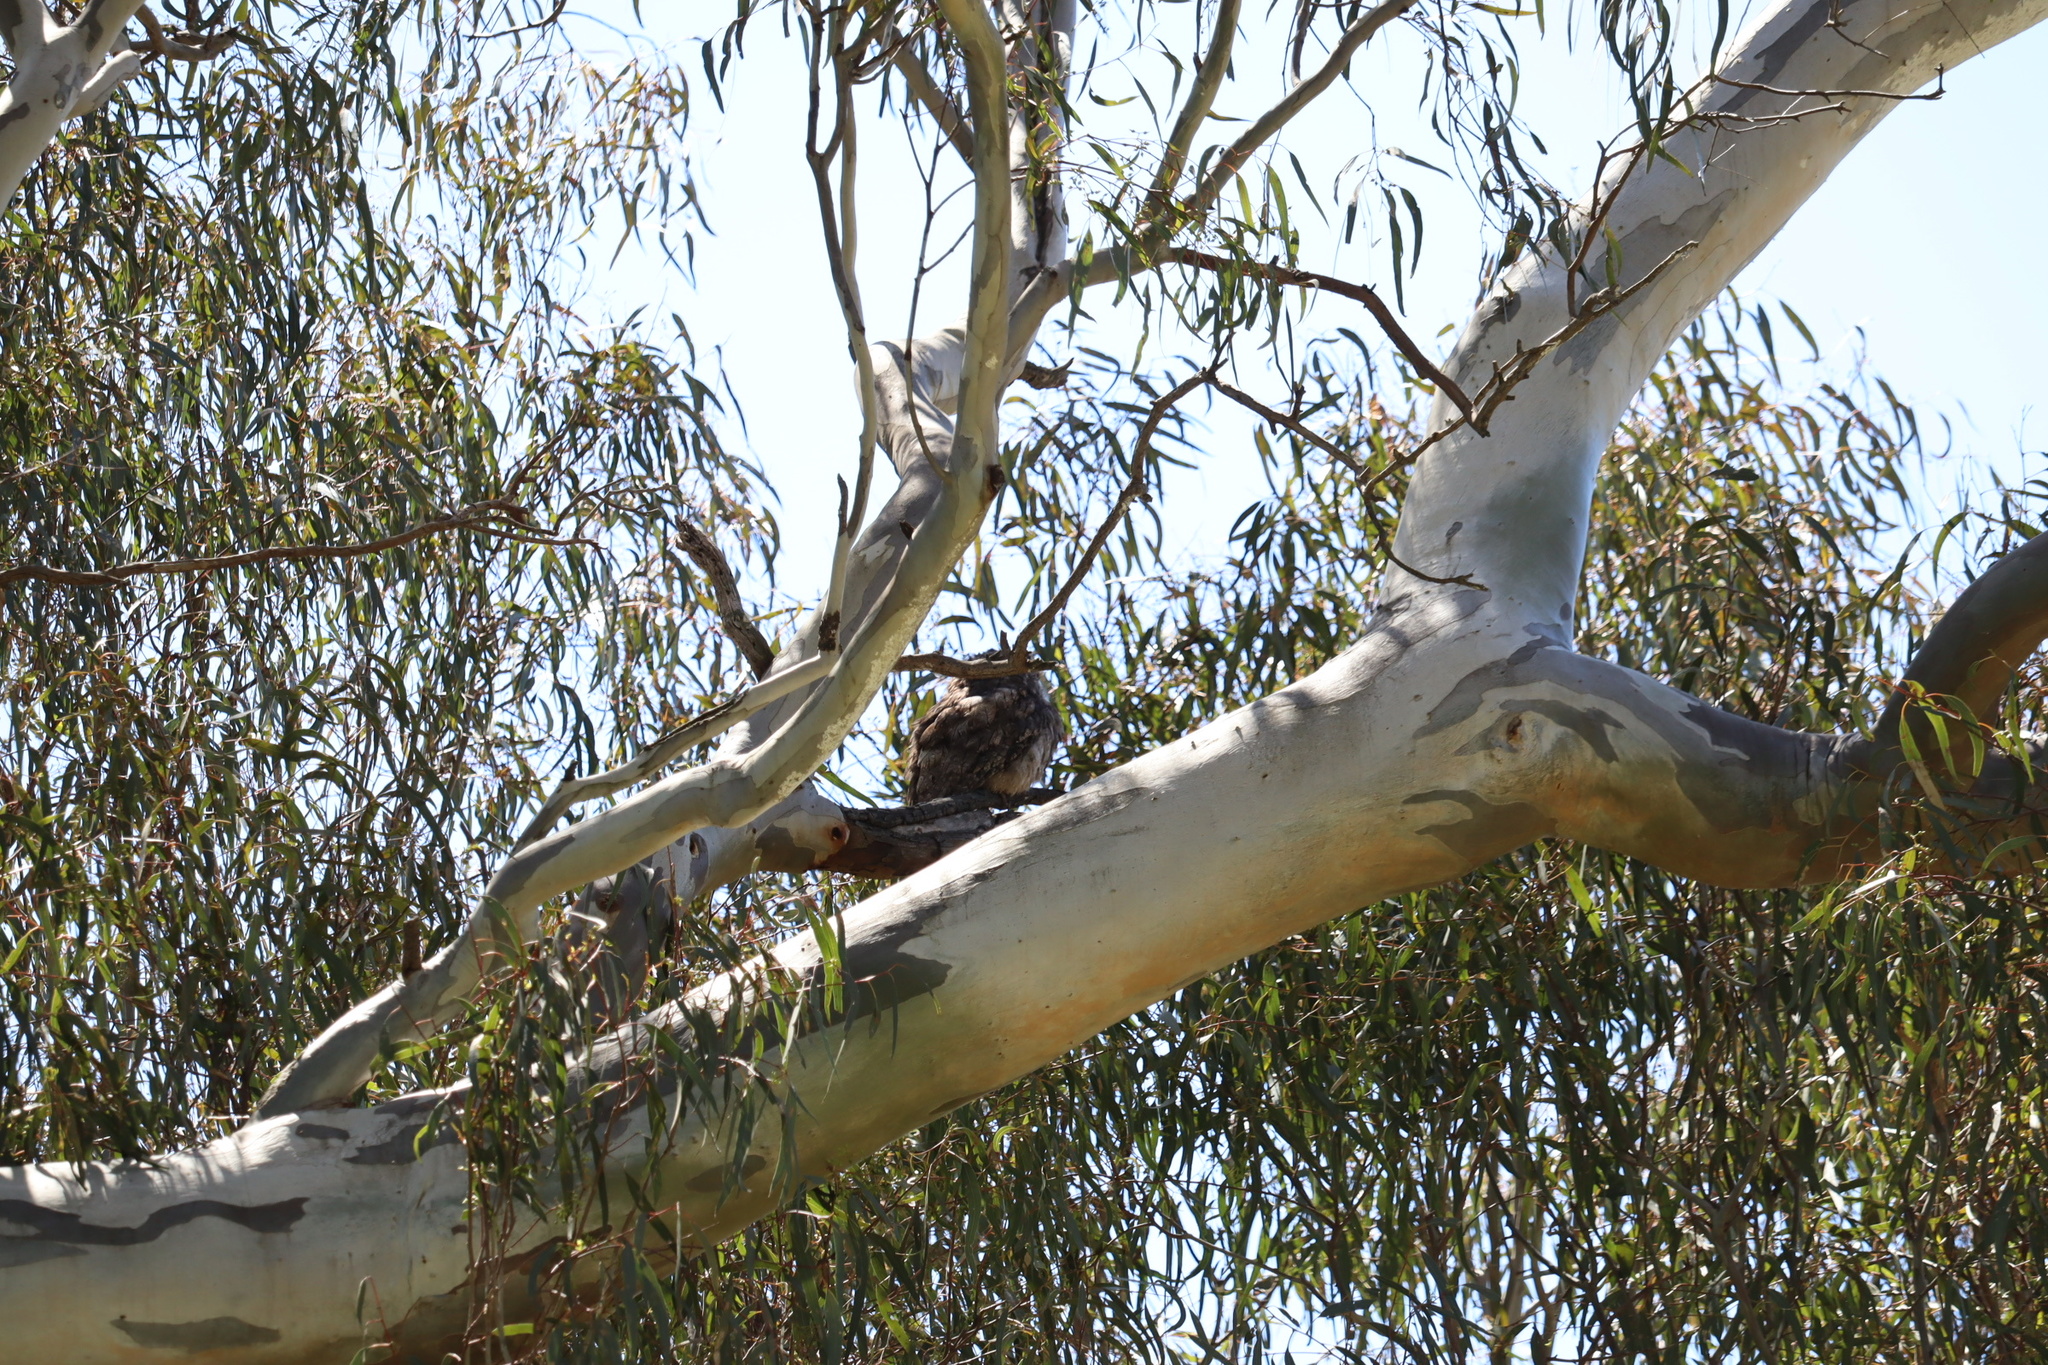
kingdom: Animalia
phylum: Chordata
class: Aves
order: Caprimulgiformes
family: Podargidae
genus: Podargus
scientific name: Podargus strigoides
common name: Tawny frogmouth
